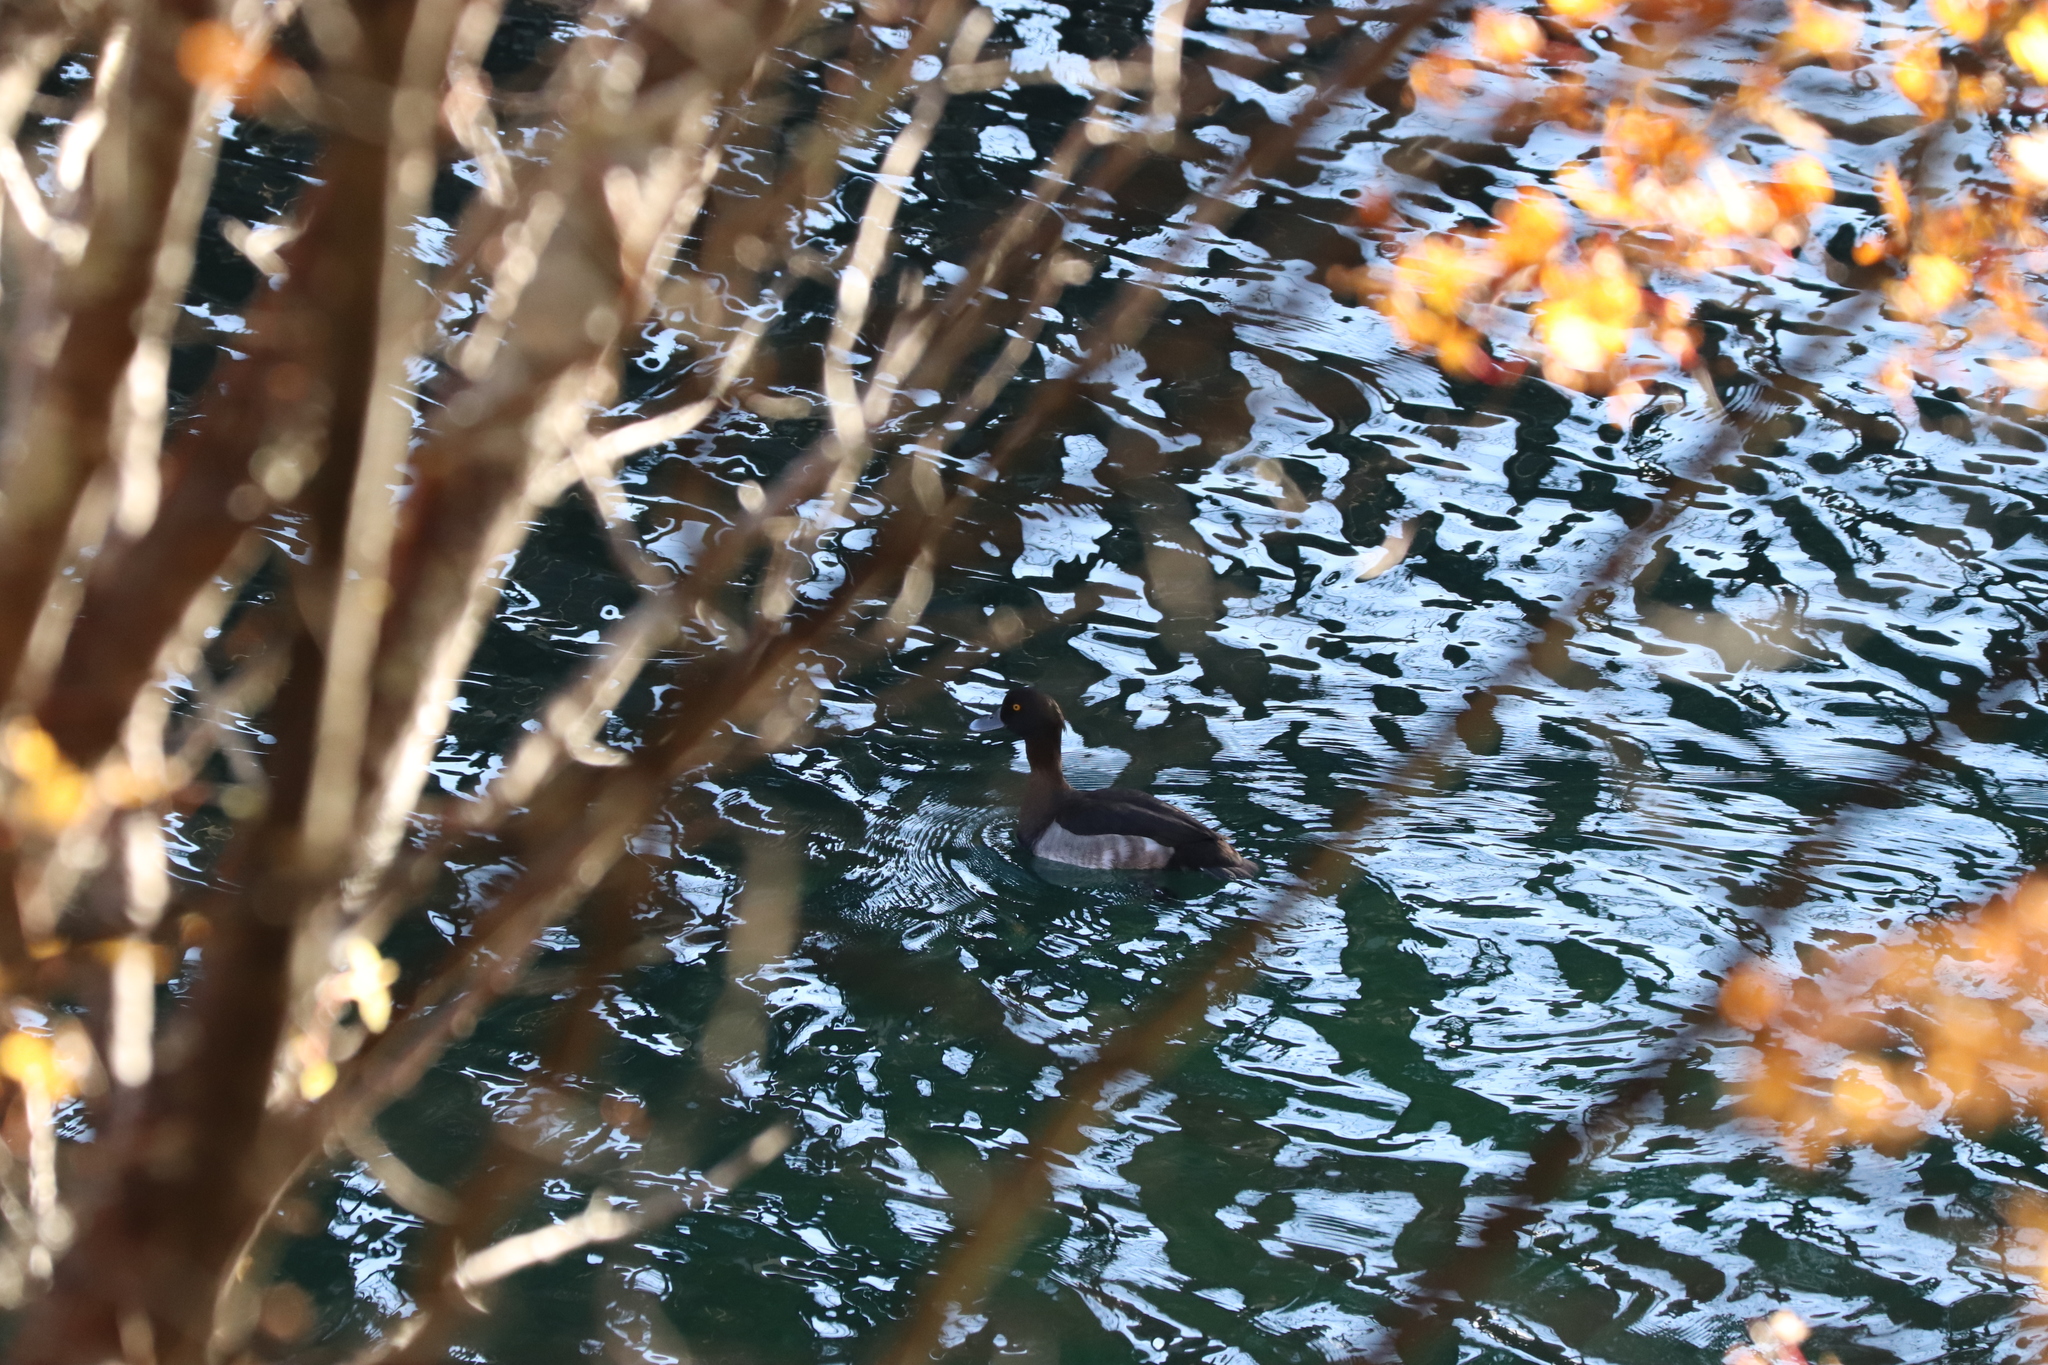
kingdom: Animalia
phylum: Chordata
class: Aves
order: Anseriformes
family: Anatidae
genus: Aythya
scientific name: Aythya fuligula
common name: Tufted duck
